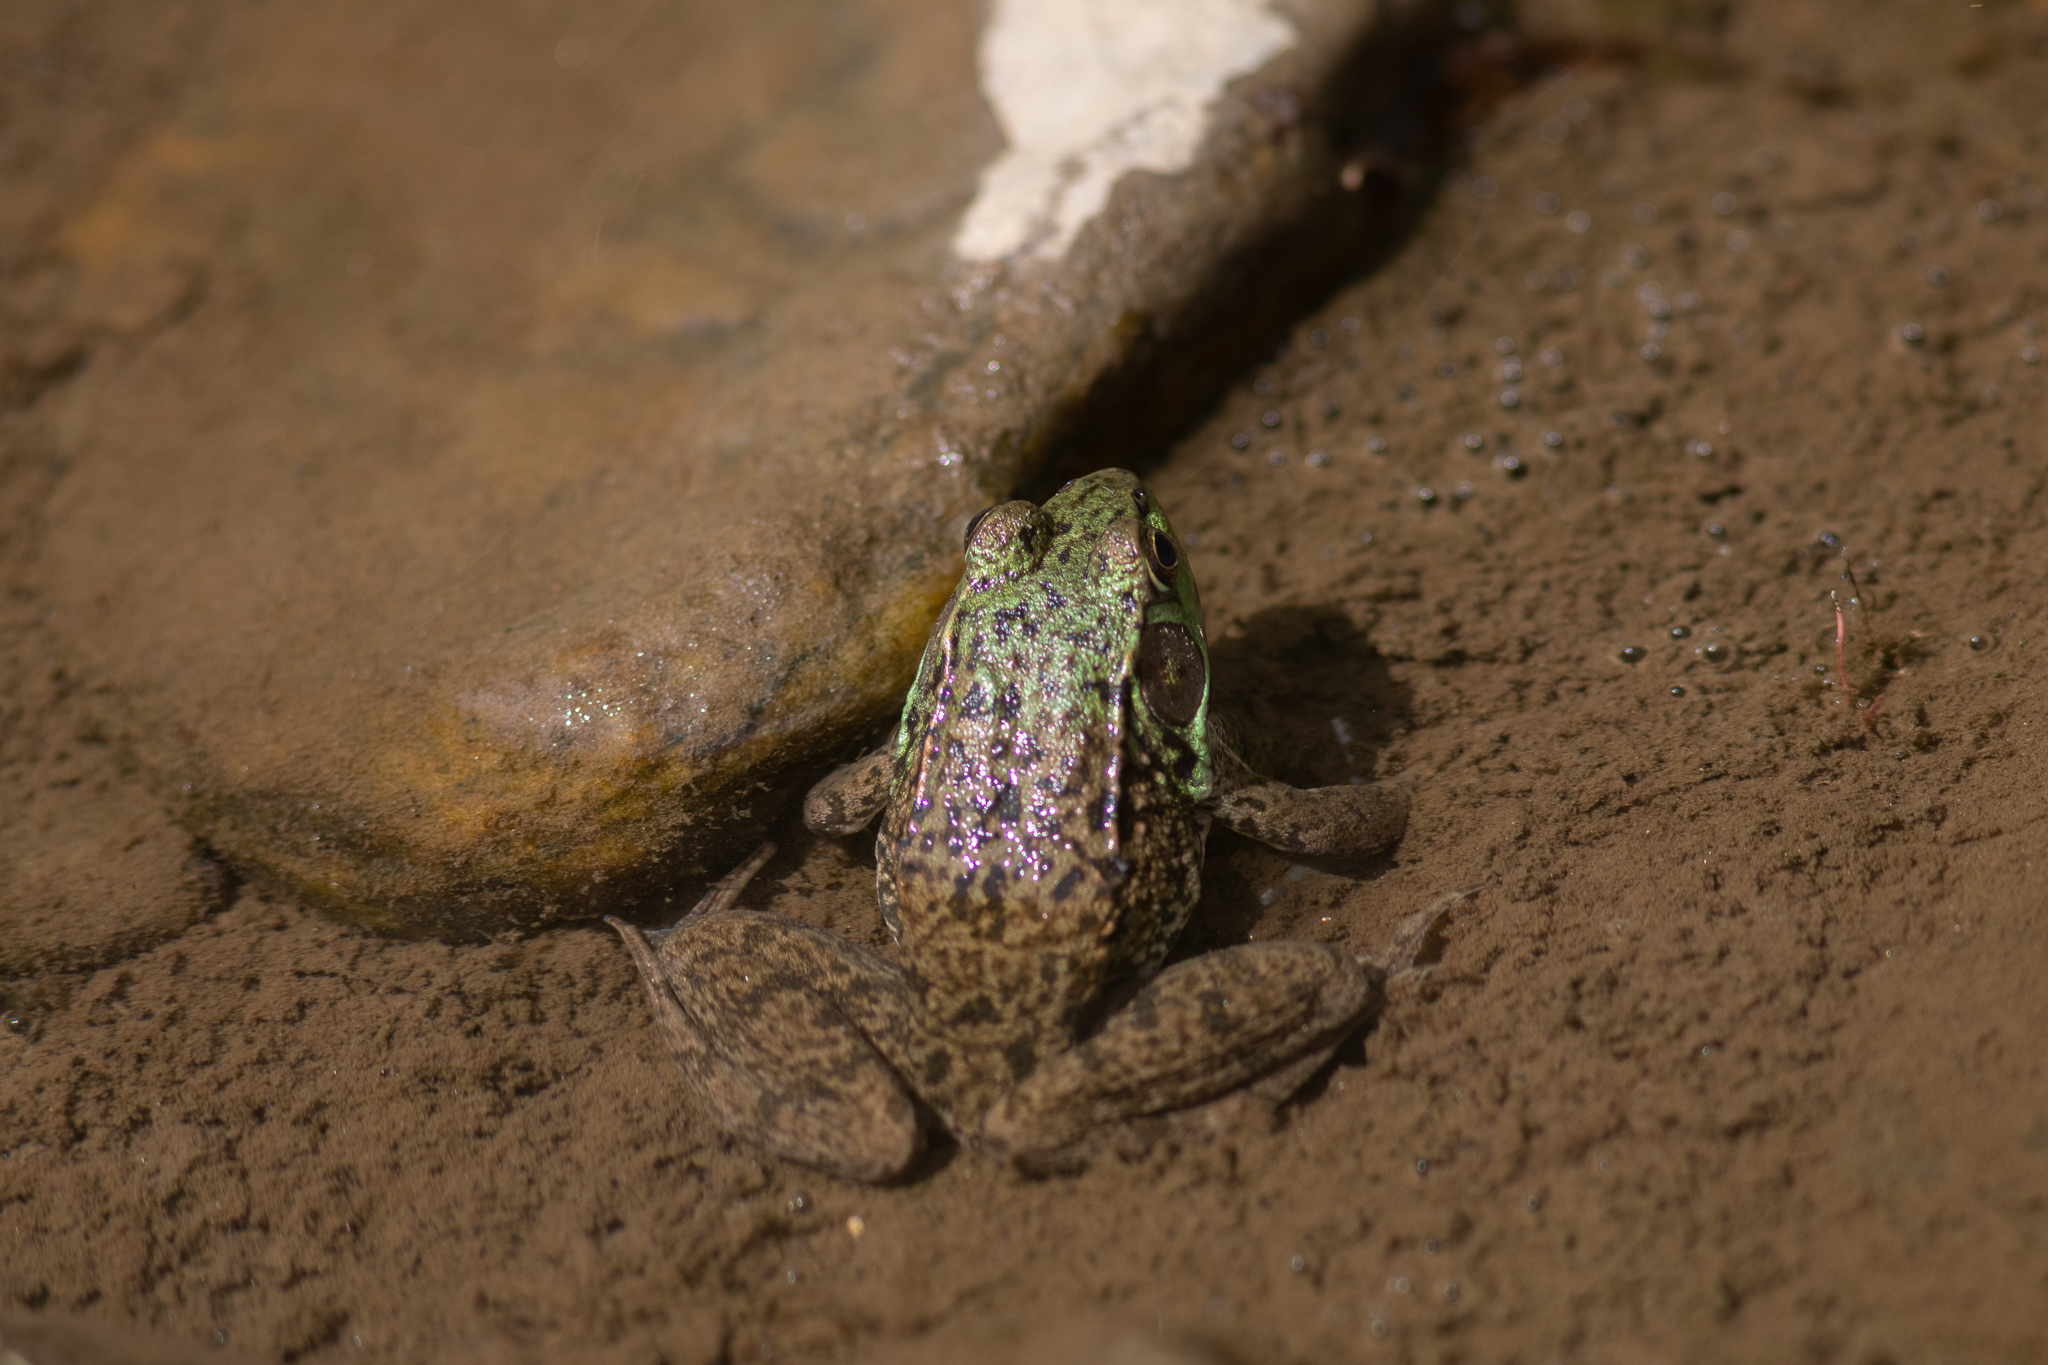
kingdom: Animalia
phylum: Chordata
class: Amphibia
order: Anura
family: Ranidae
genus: Lithobates
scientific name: Lithobates clamitans
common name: Green frog
